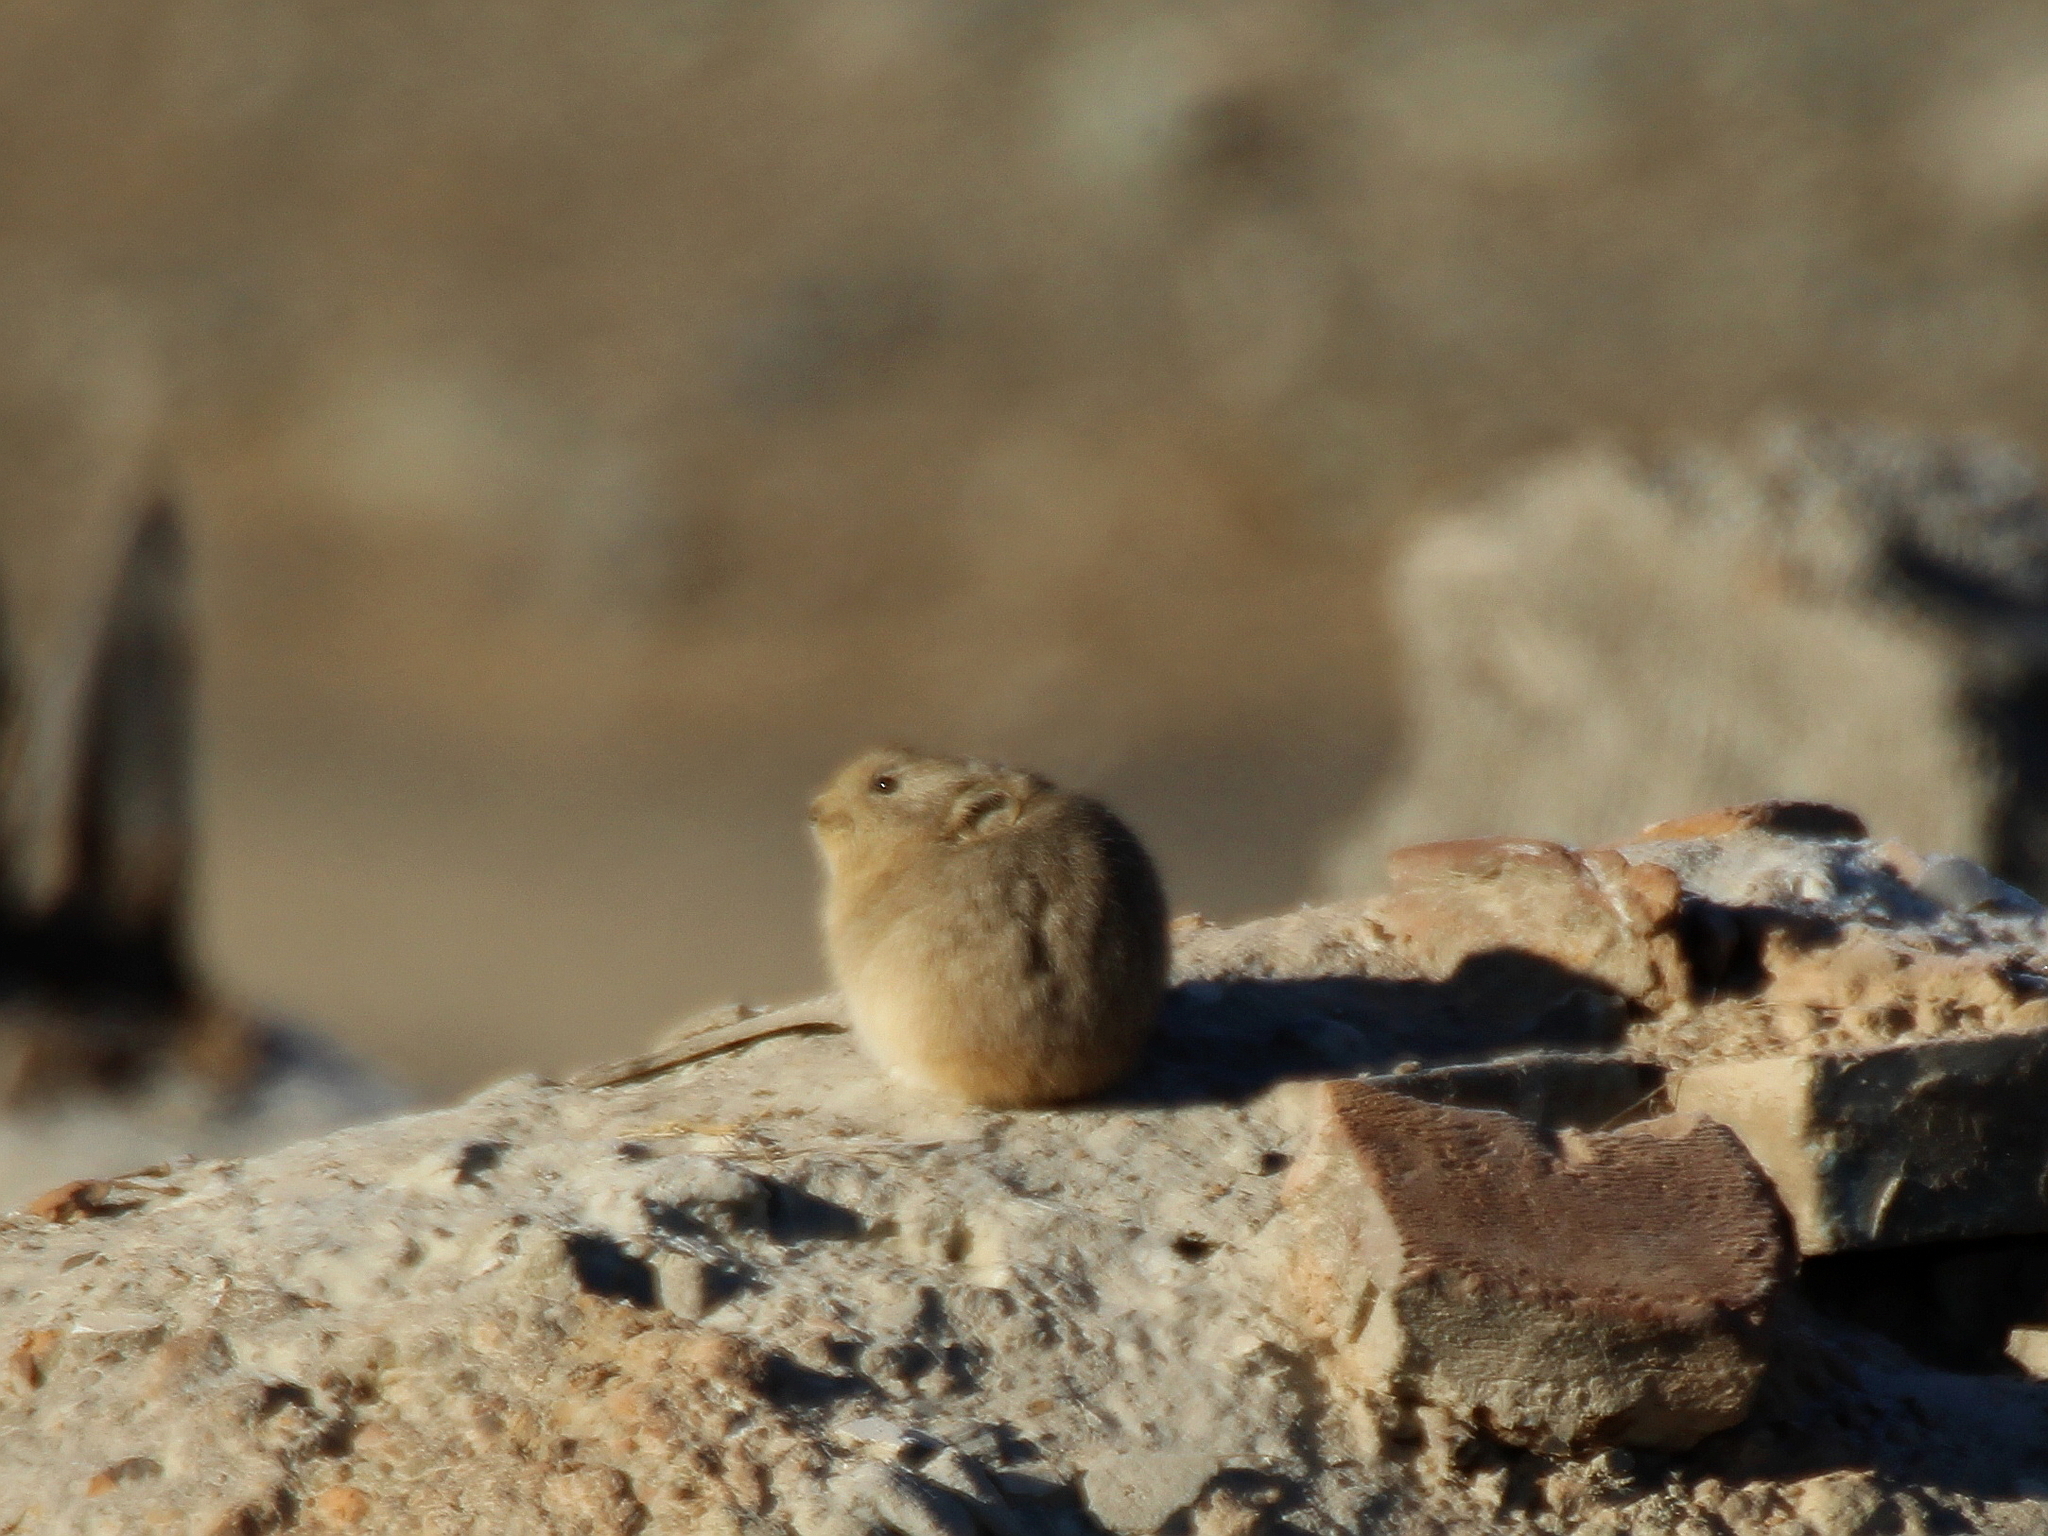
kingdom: Animalia
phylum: Chordata
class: Mammalia
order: Lagomorpha
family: Ochotonidae
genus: Ochotona
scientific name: Ochotona pallasi
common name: Mongolian pika
